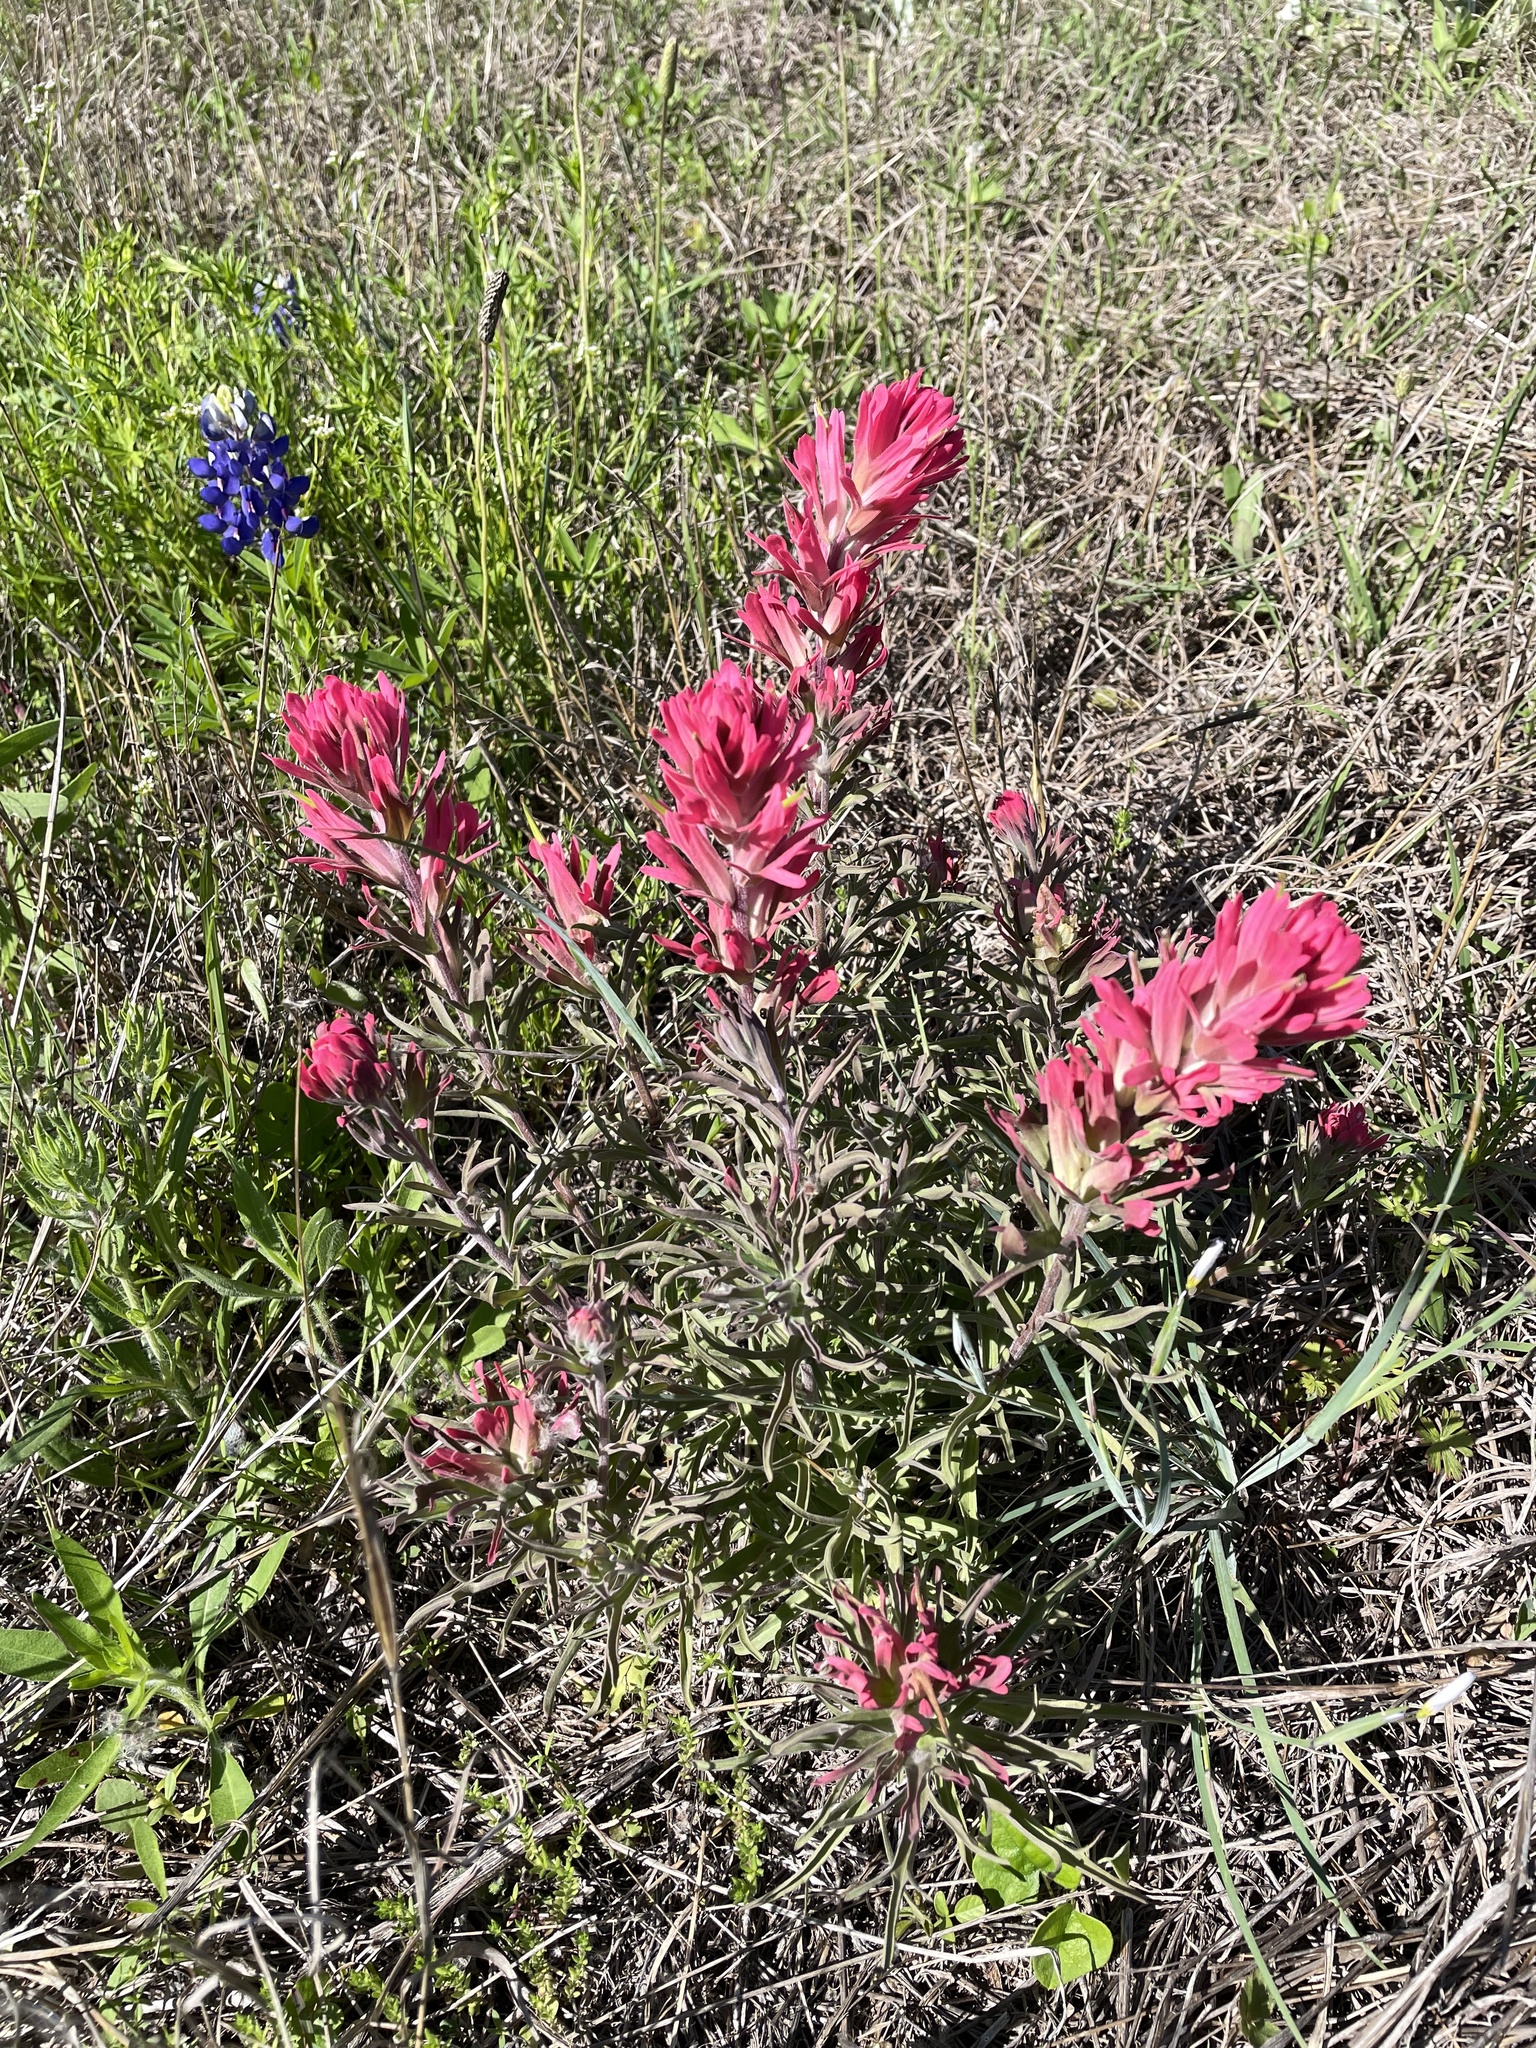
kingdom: Plantae
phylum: Tracheophyta
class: Magnoliopsida
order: Lamiales
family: Orobanchaceae
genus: Castilleja
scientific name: Castilleja purpurea
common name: Plains paintbrush
